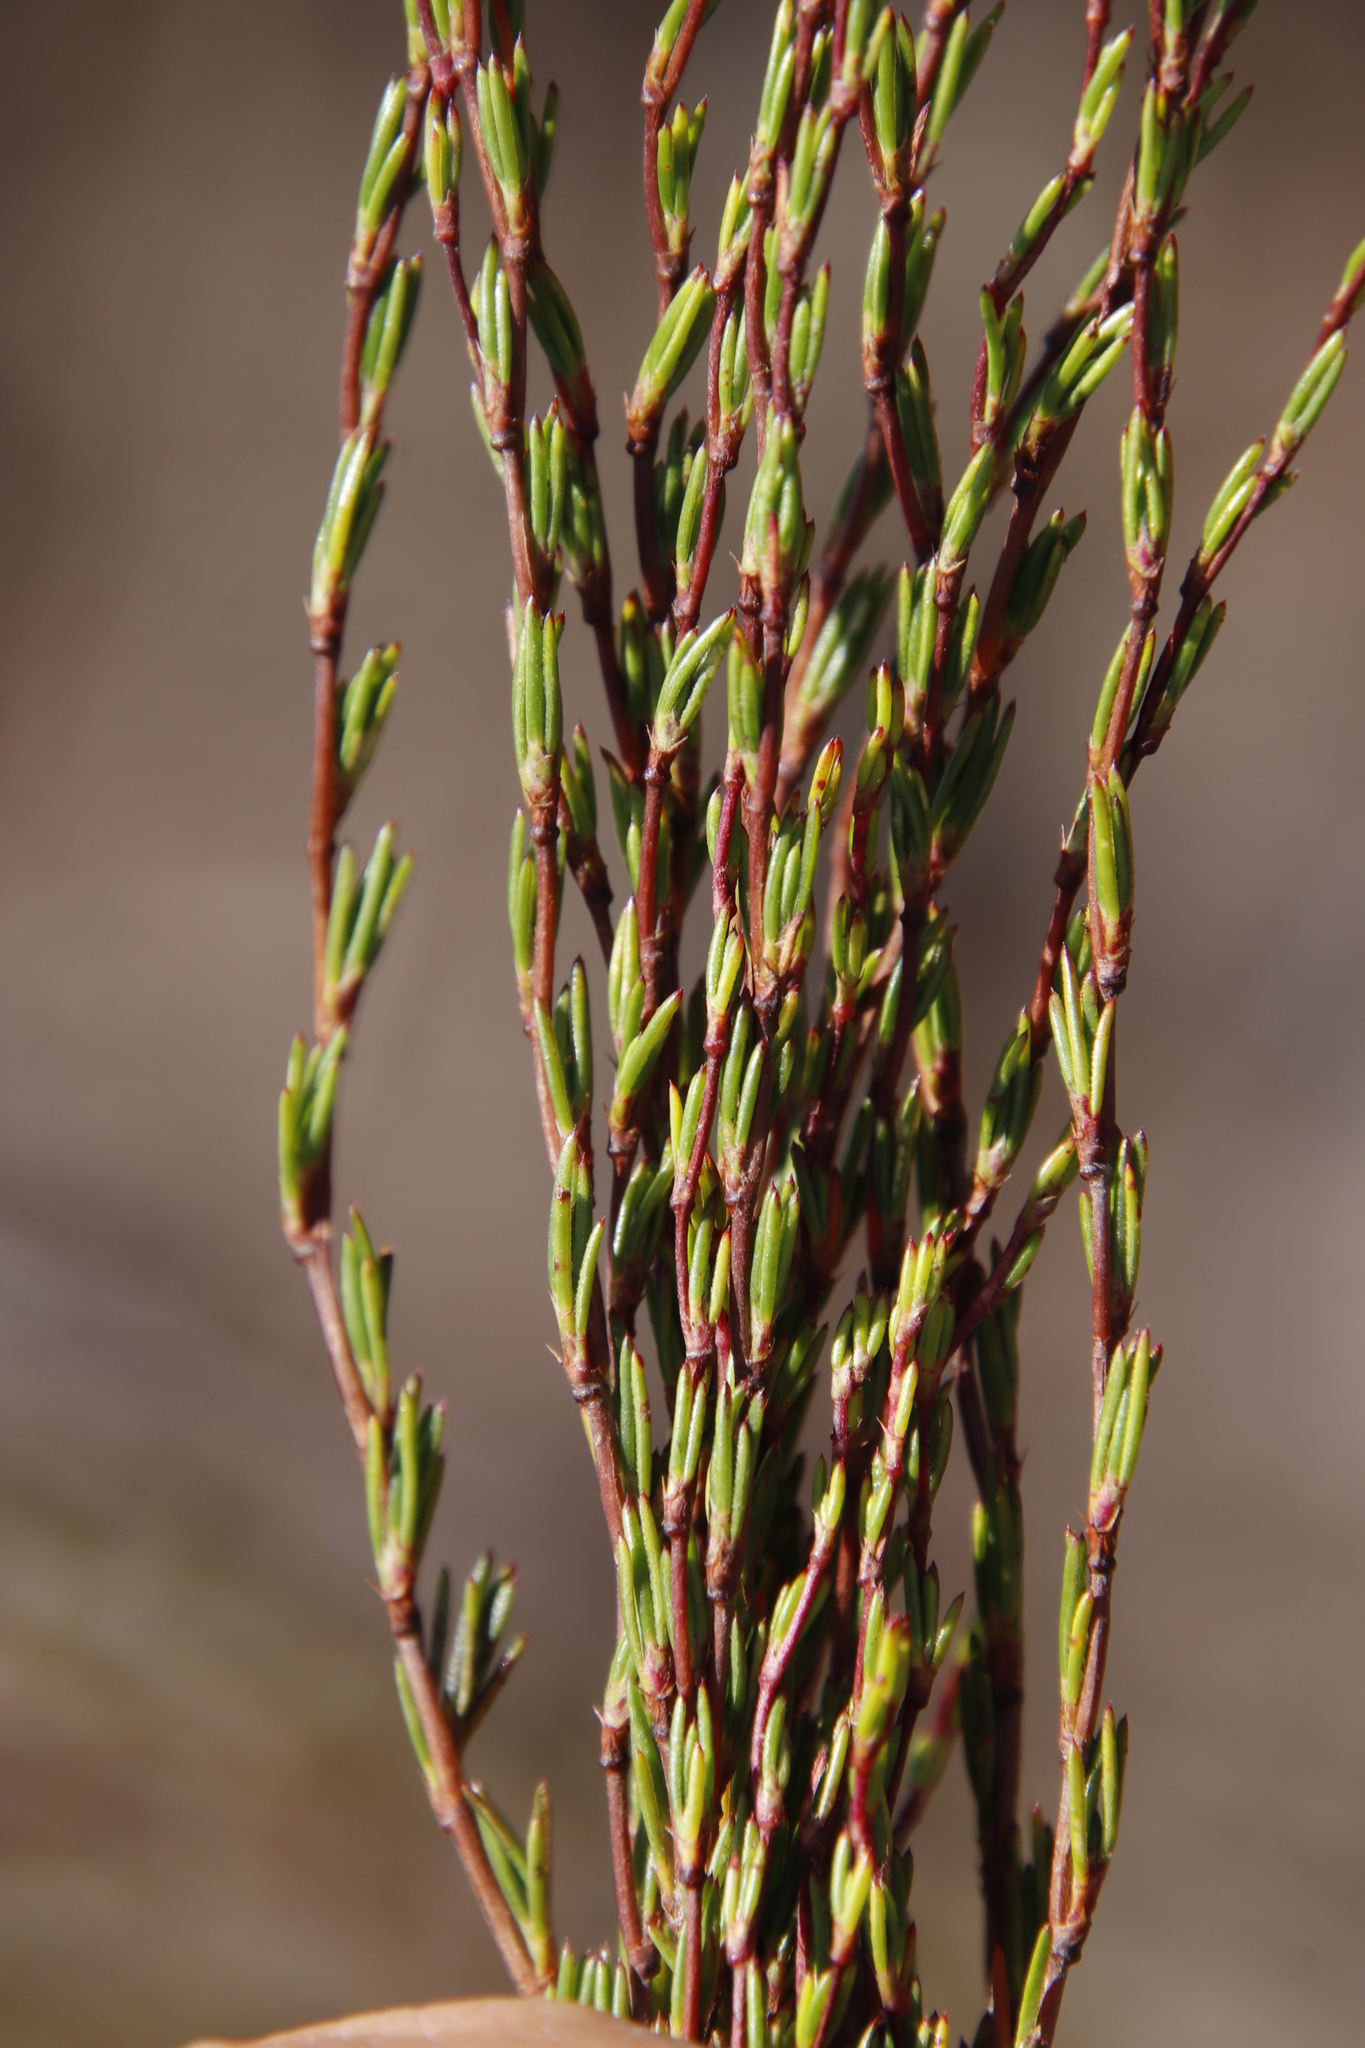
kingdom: Plantae
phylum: Tracheophyta
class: Magnoliopsida
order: Rosales
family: Rosaceae
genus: Cliffortia
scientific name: Cliffortia erectisepala
